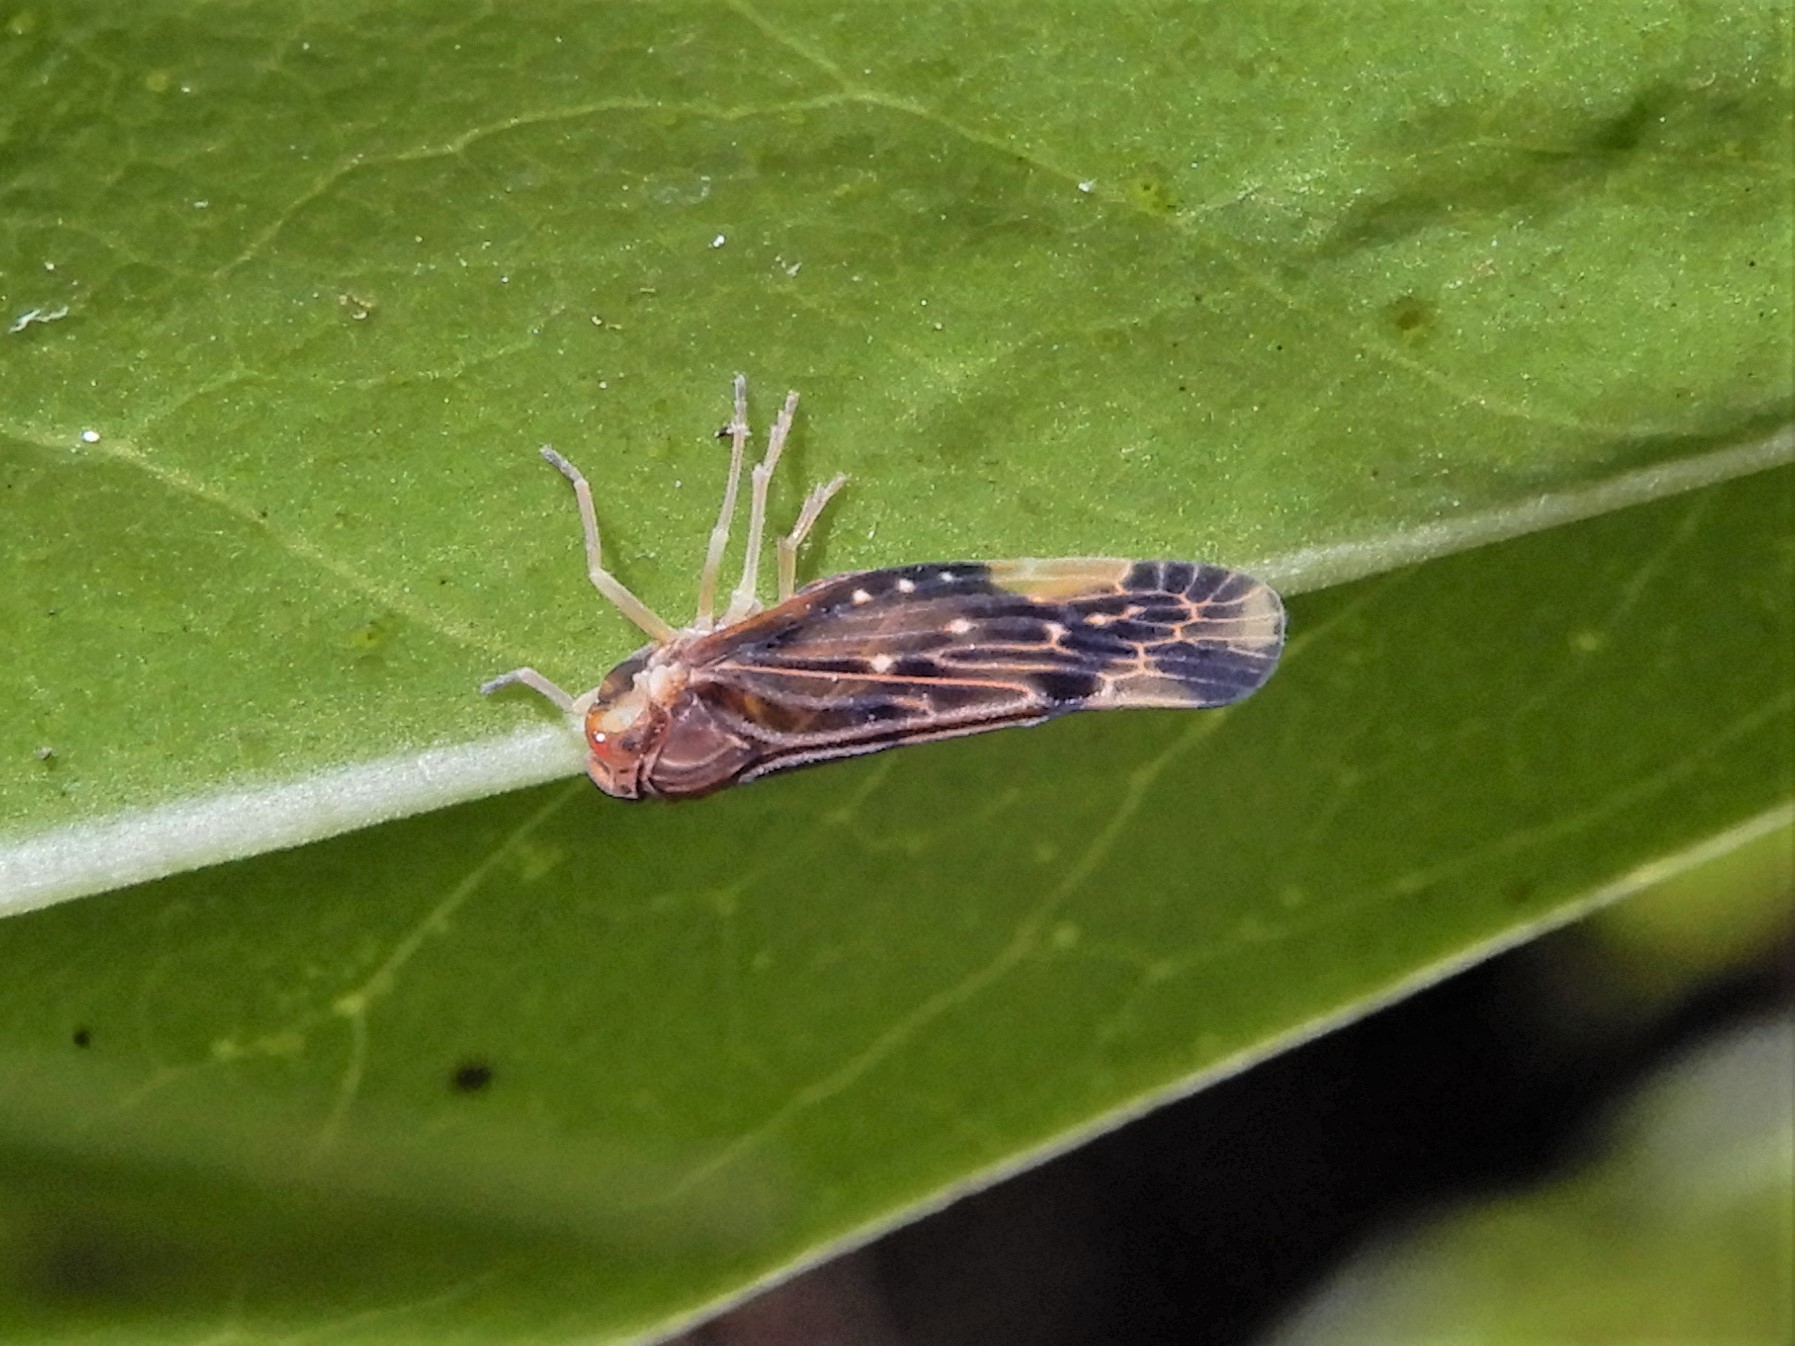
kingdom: Animalia
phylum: Arthropoda
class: Insecta
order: Hemiptera
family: Derbidae
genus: Eocenchrea
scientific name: Eocenchrea maorica
